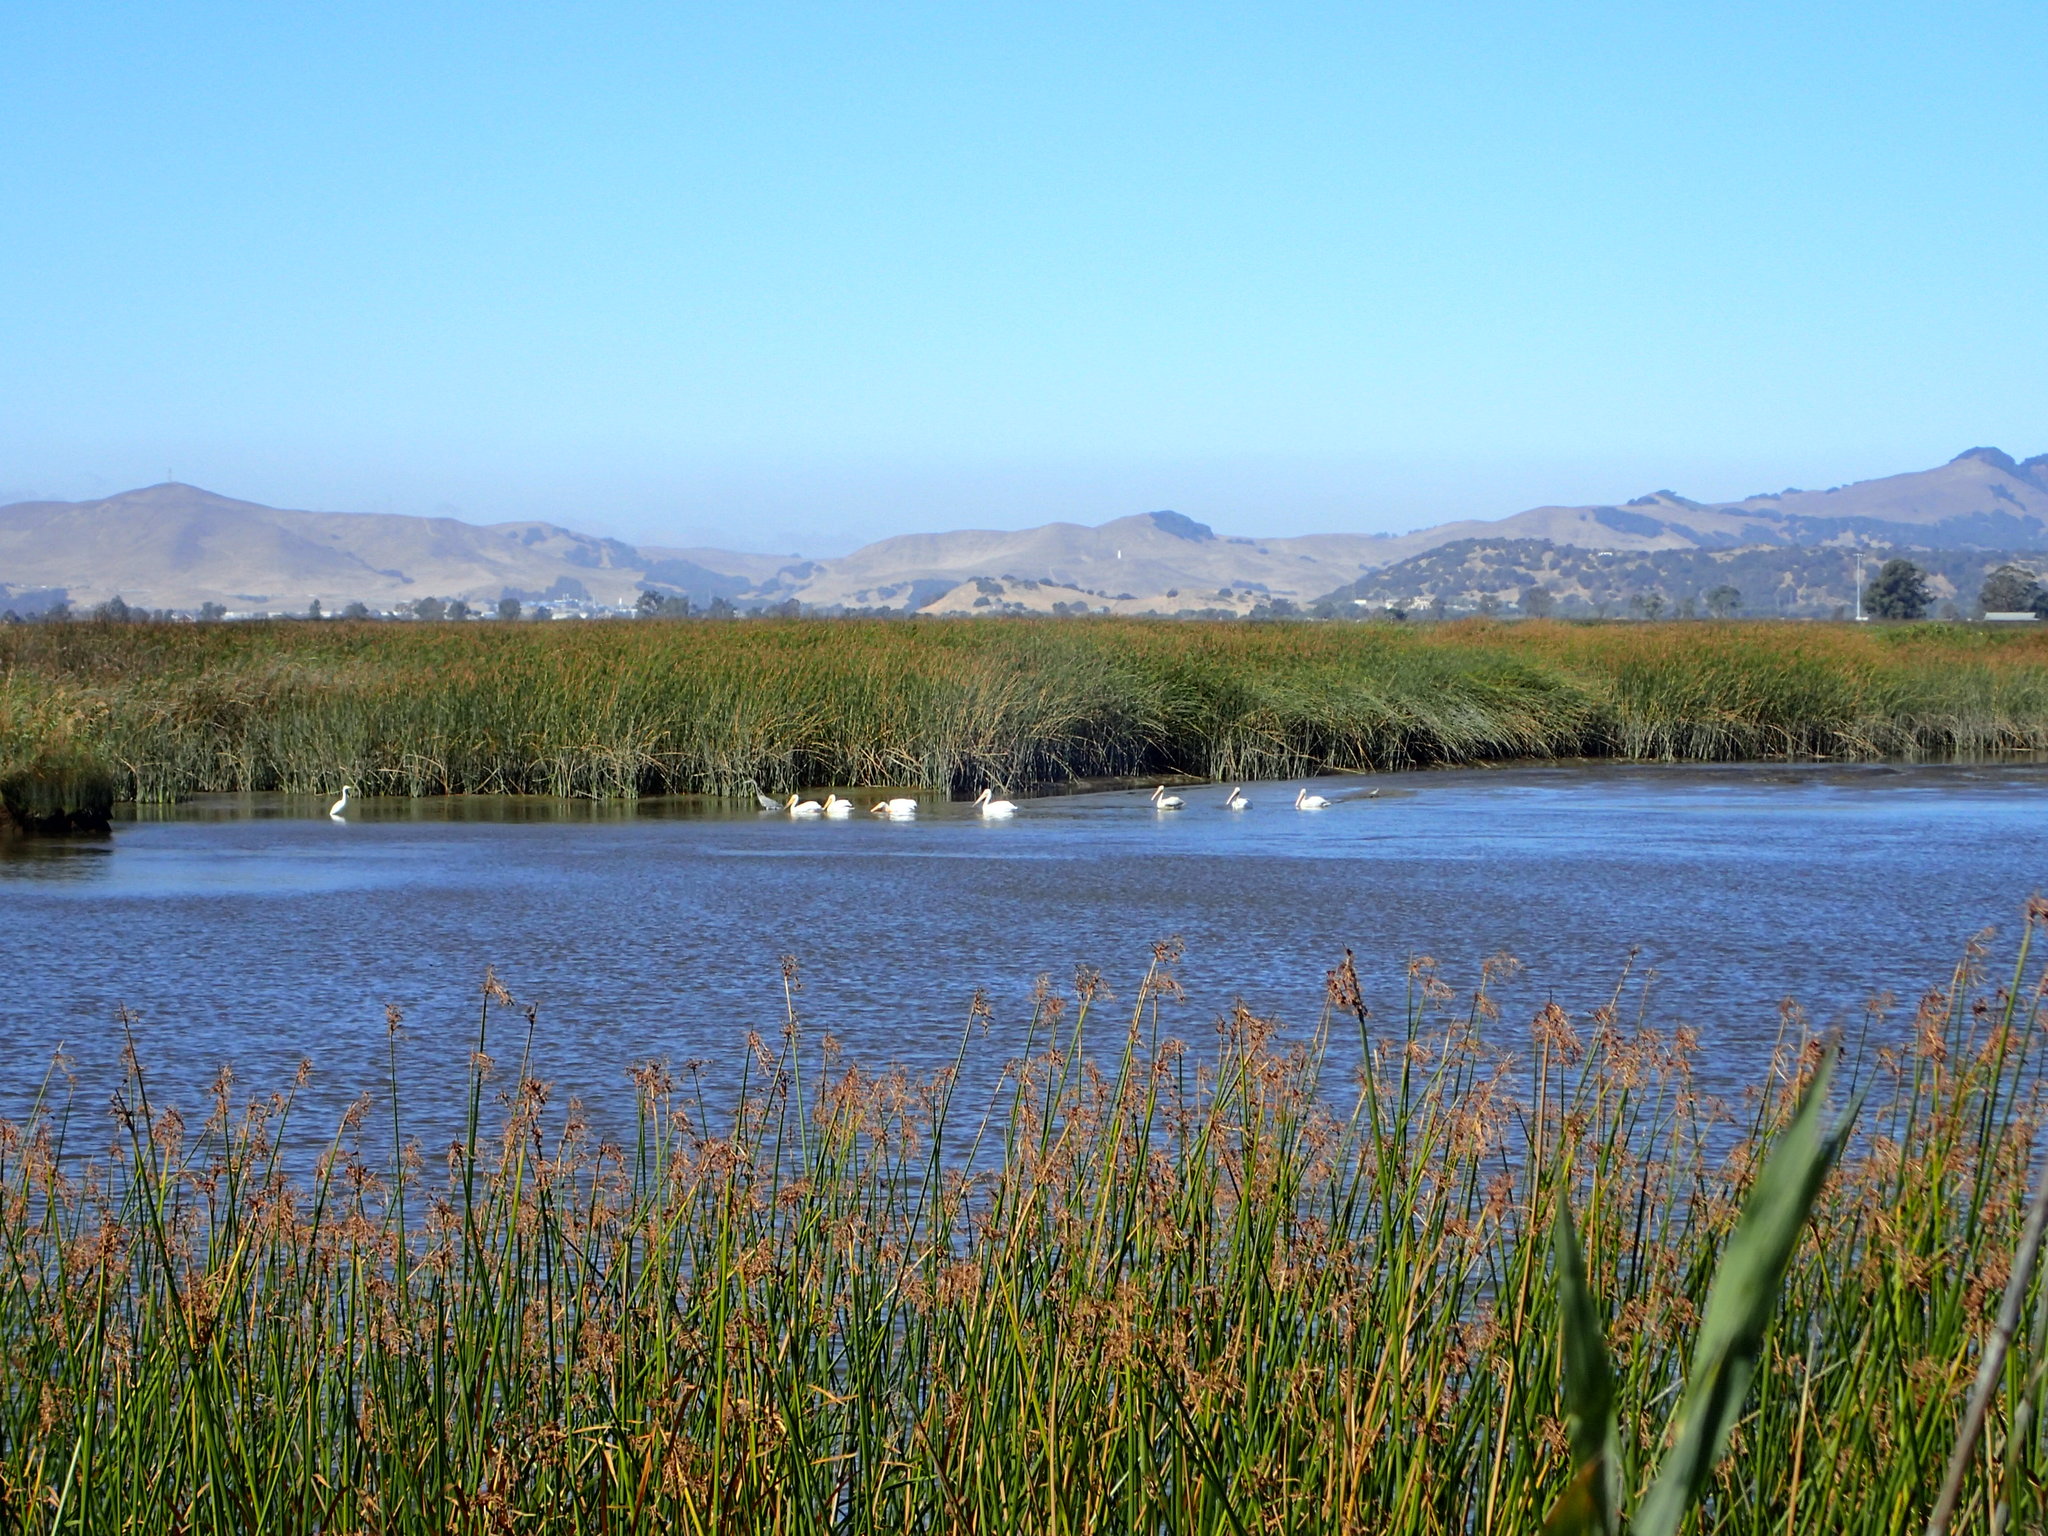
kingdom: Animalia
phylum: Chordata
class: Aves
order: Pelecaniformes
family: Pelecanidae
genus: Pelecanus
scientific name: Pelecanus erythrorhynchos
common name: American white pelican
